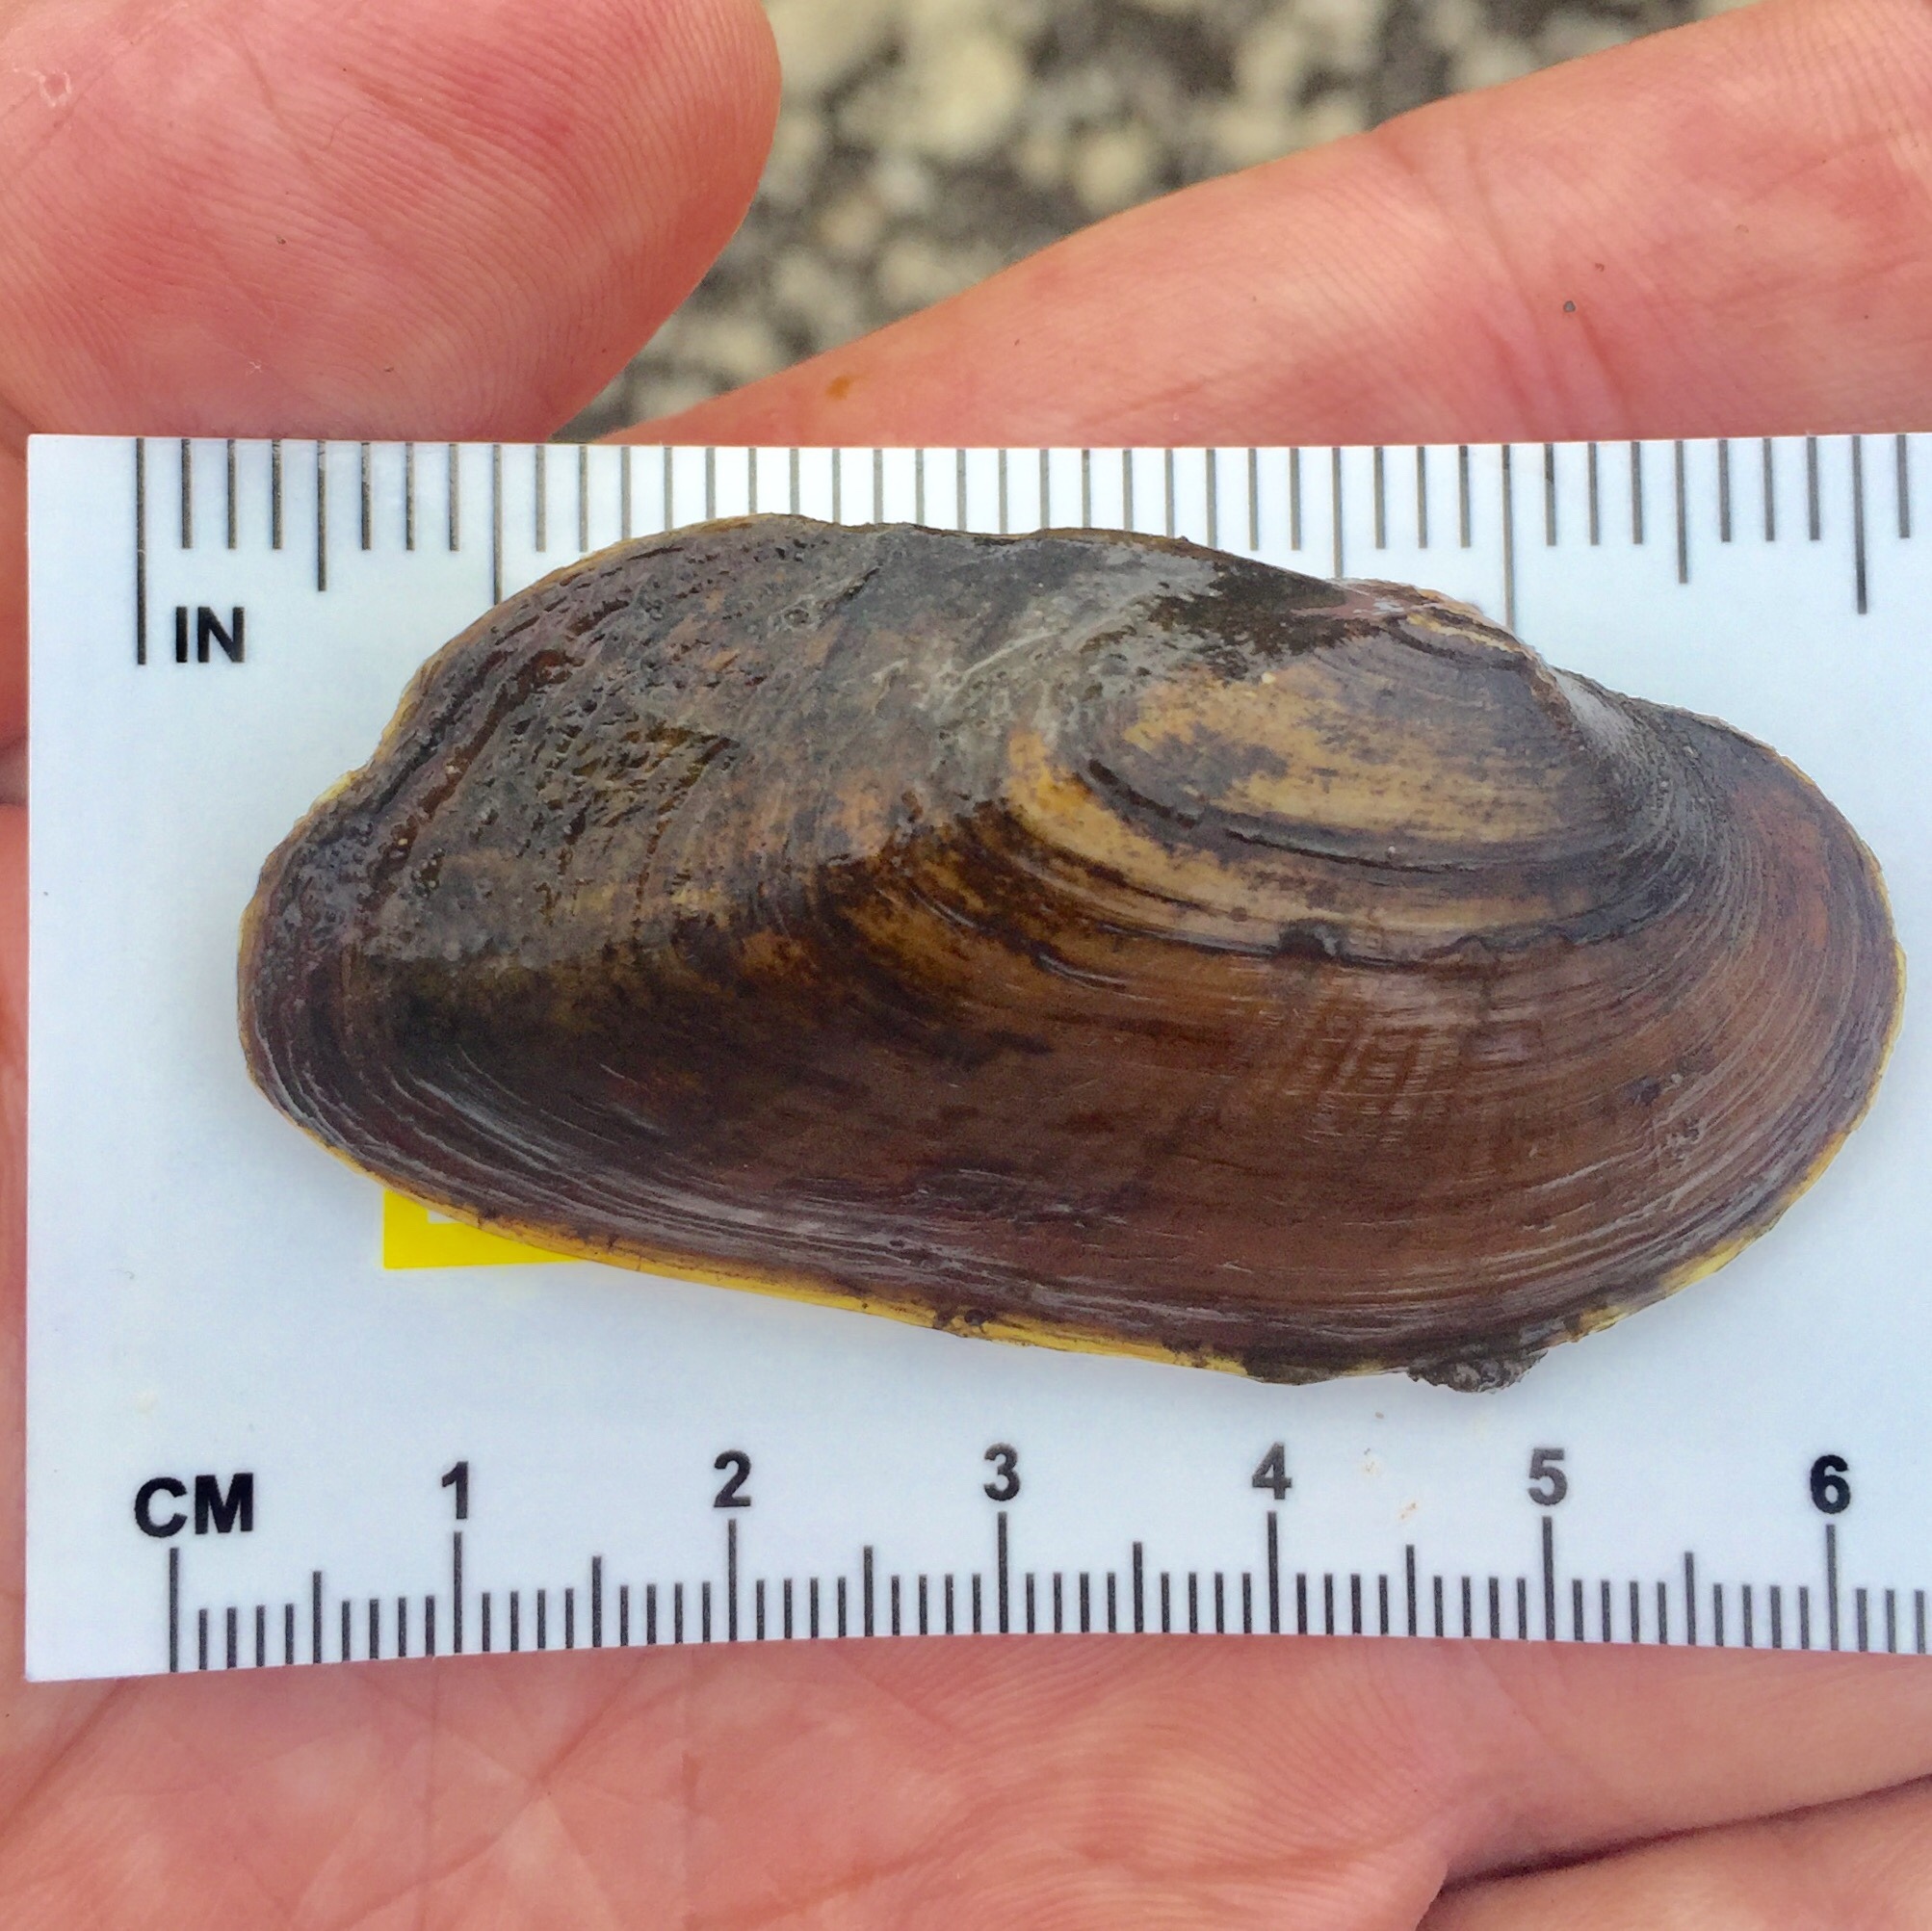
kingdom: Animalia
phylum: Mollusca
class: Bivalvia
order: Unionida
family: Unionidae
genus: Elliptio
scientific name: Elliptio complanata
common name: Eastern elliptio
